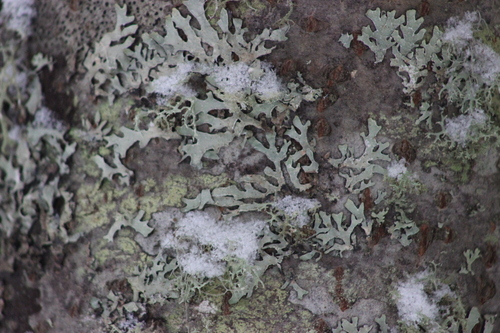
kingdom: Fungi
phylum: Ascomycota
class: Lecanoromycetes
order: Lecanorales
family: Parmeliaceae
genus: Parmelia
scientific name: Parmelia
